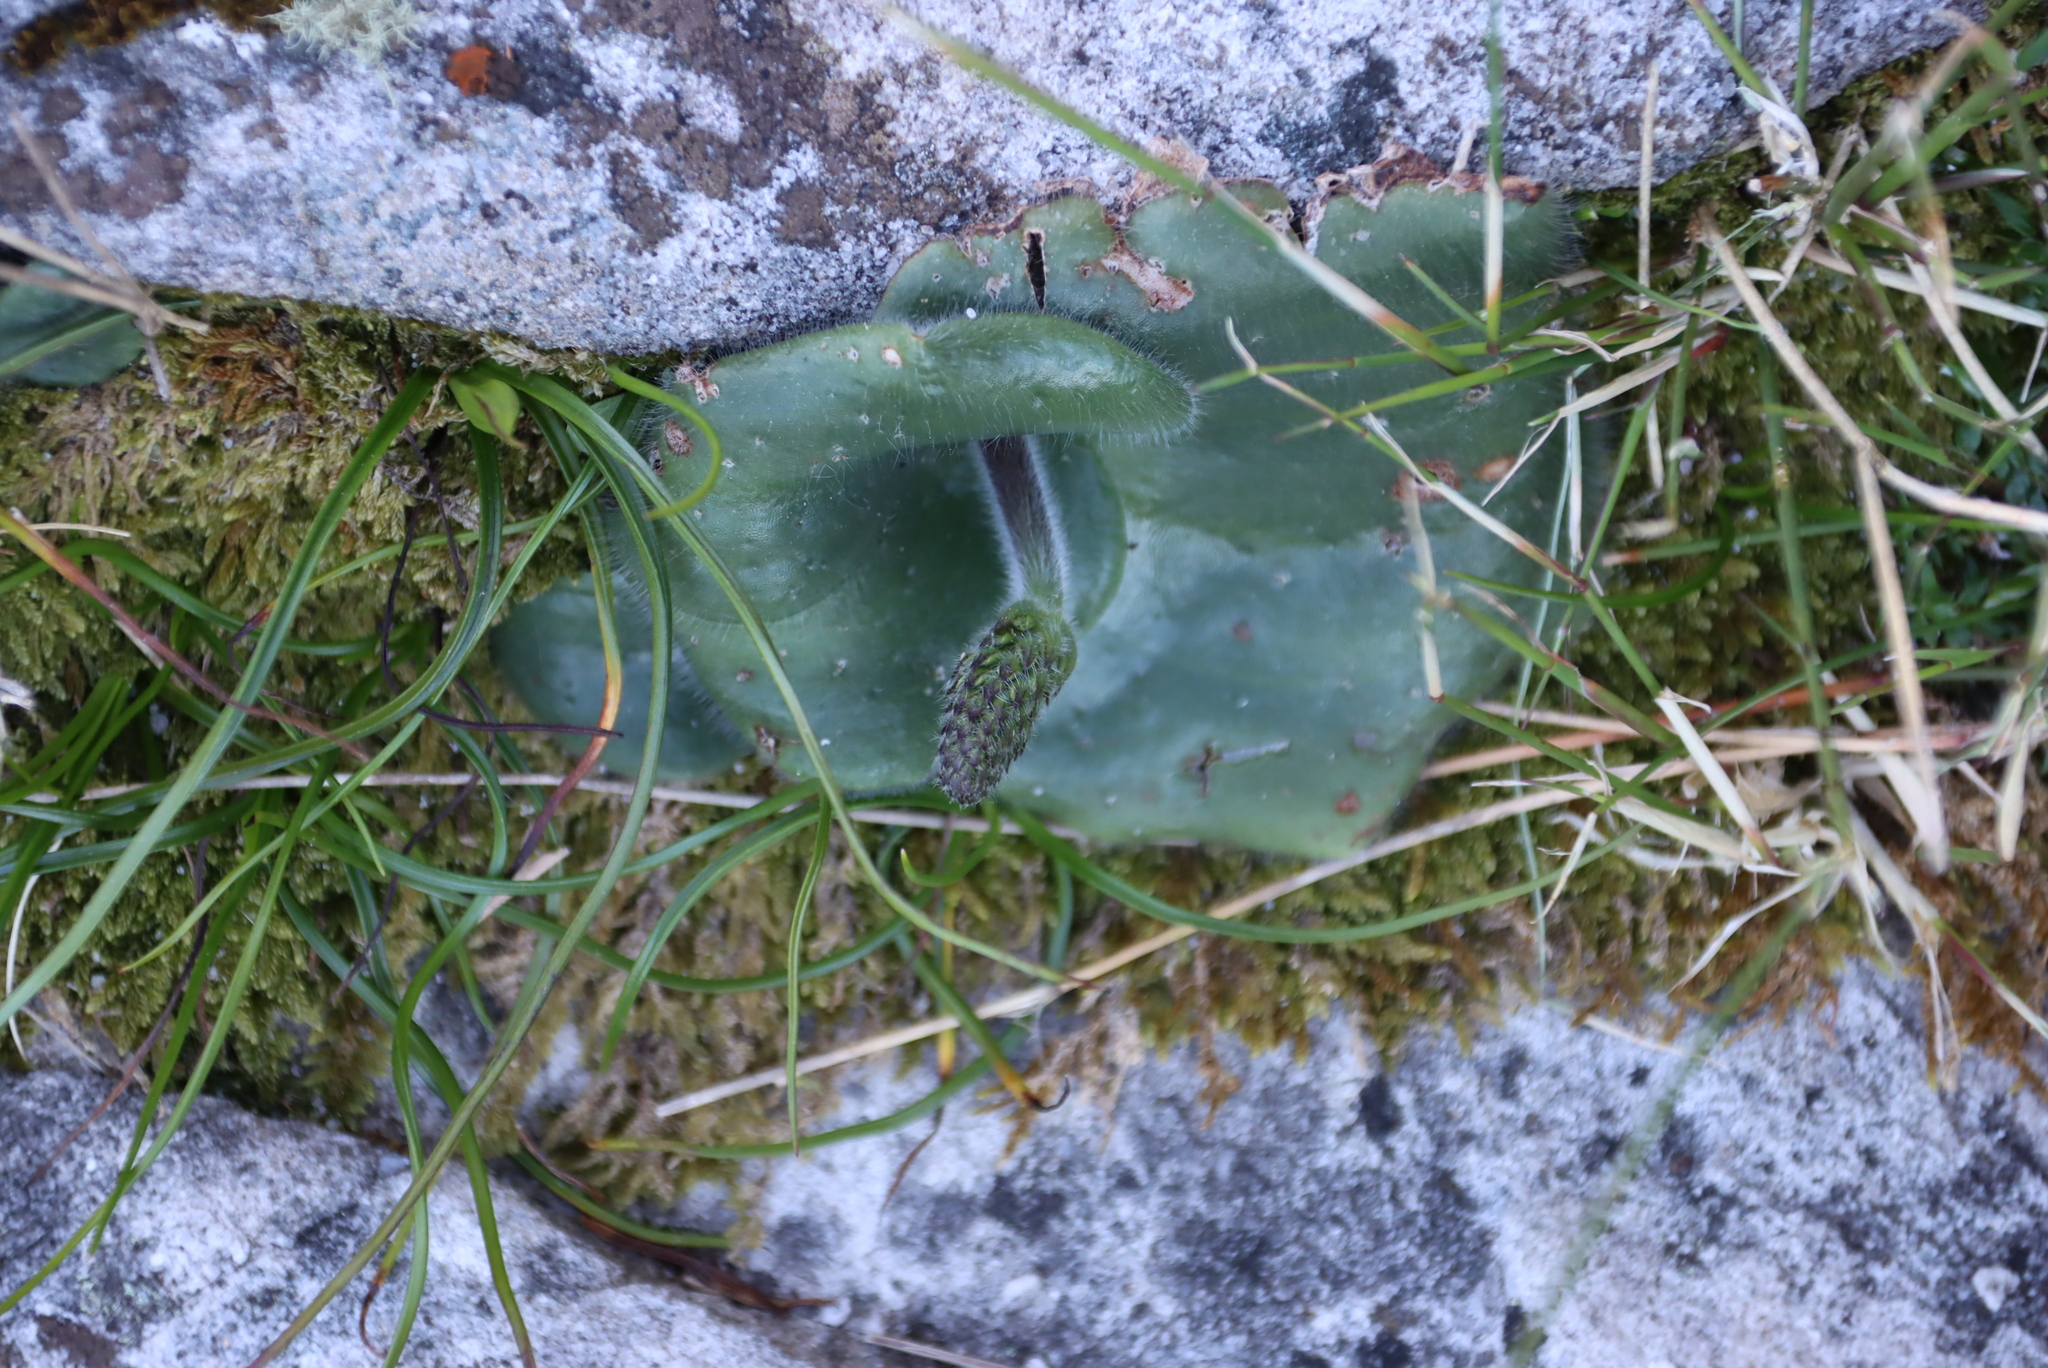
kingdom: Plantae
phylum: Tracheophyta
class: Liliopsida
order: Asparagales
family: Orchidaceae
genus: Holothrix
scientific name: Holothrix condensata
